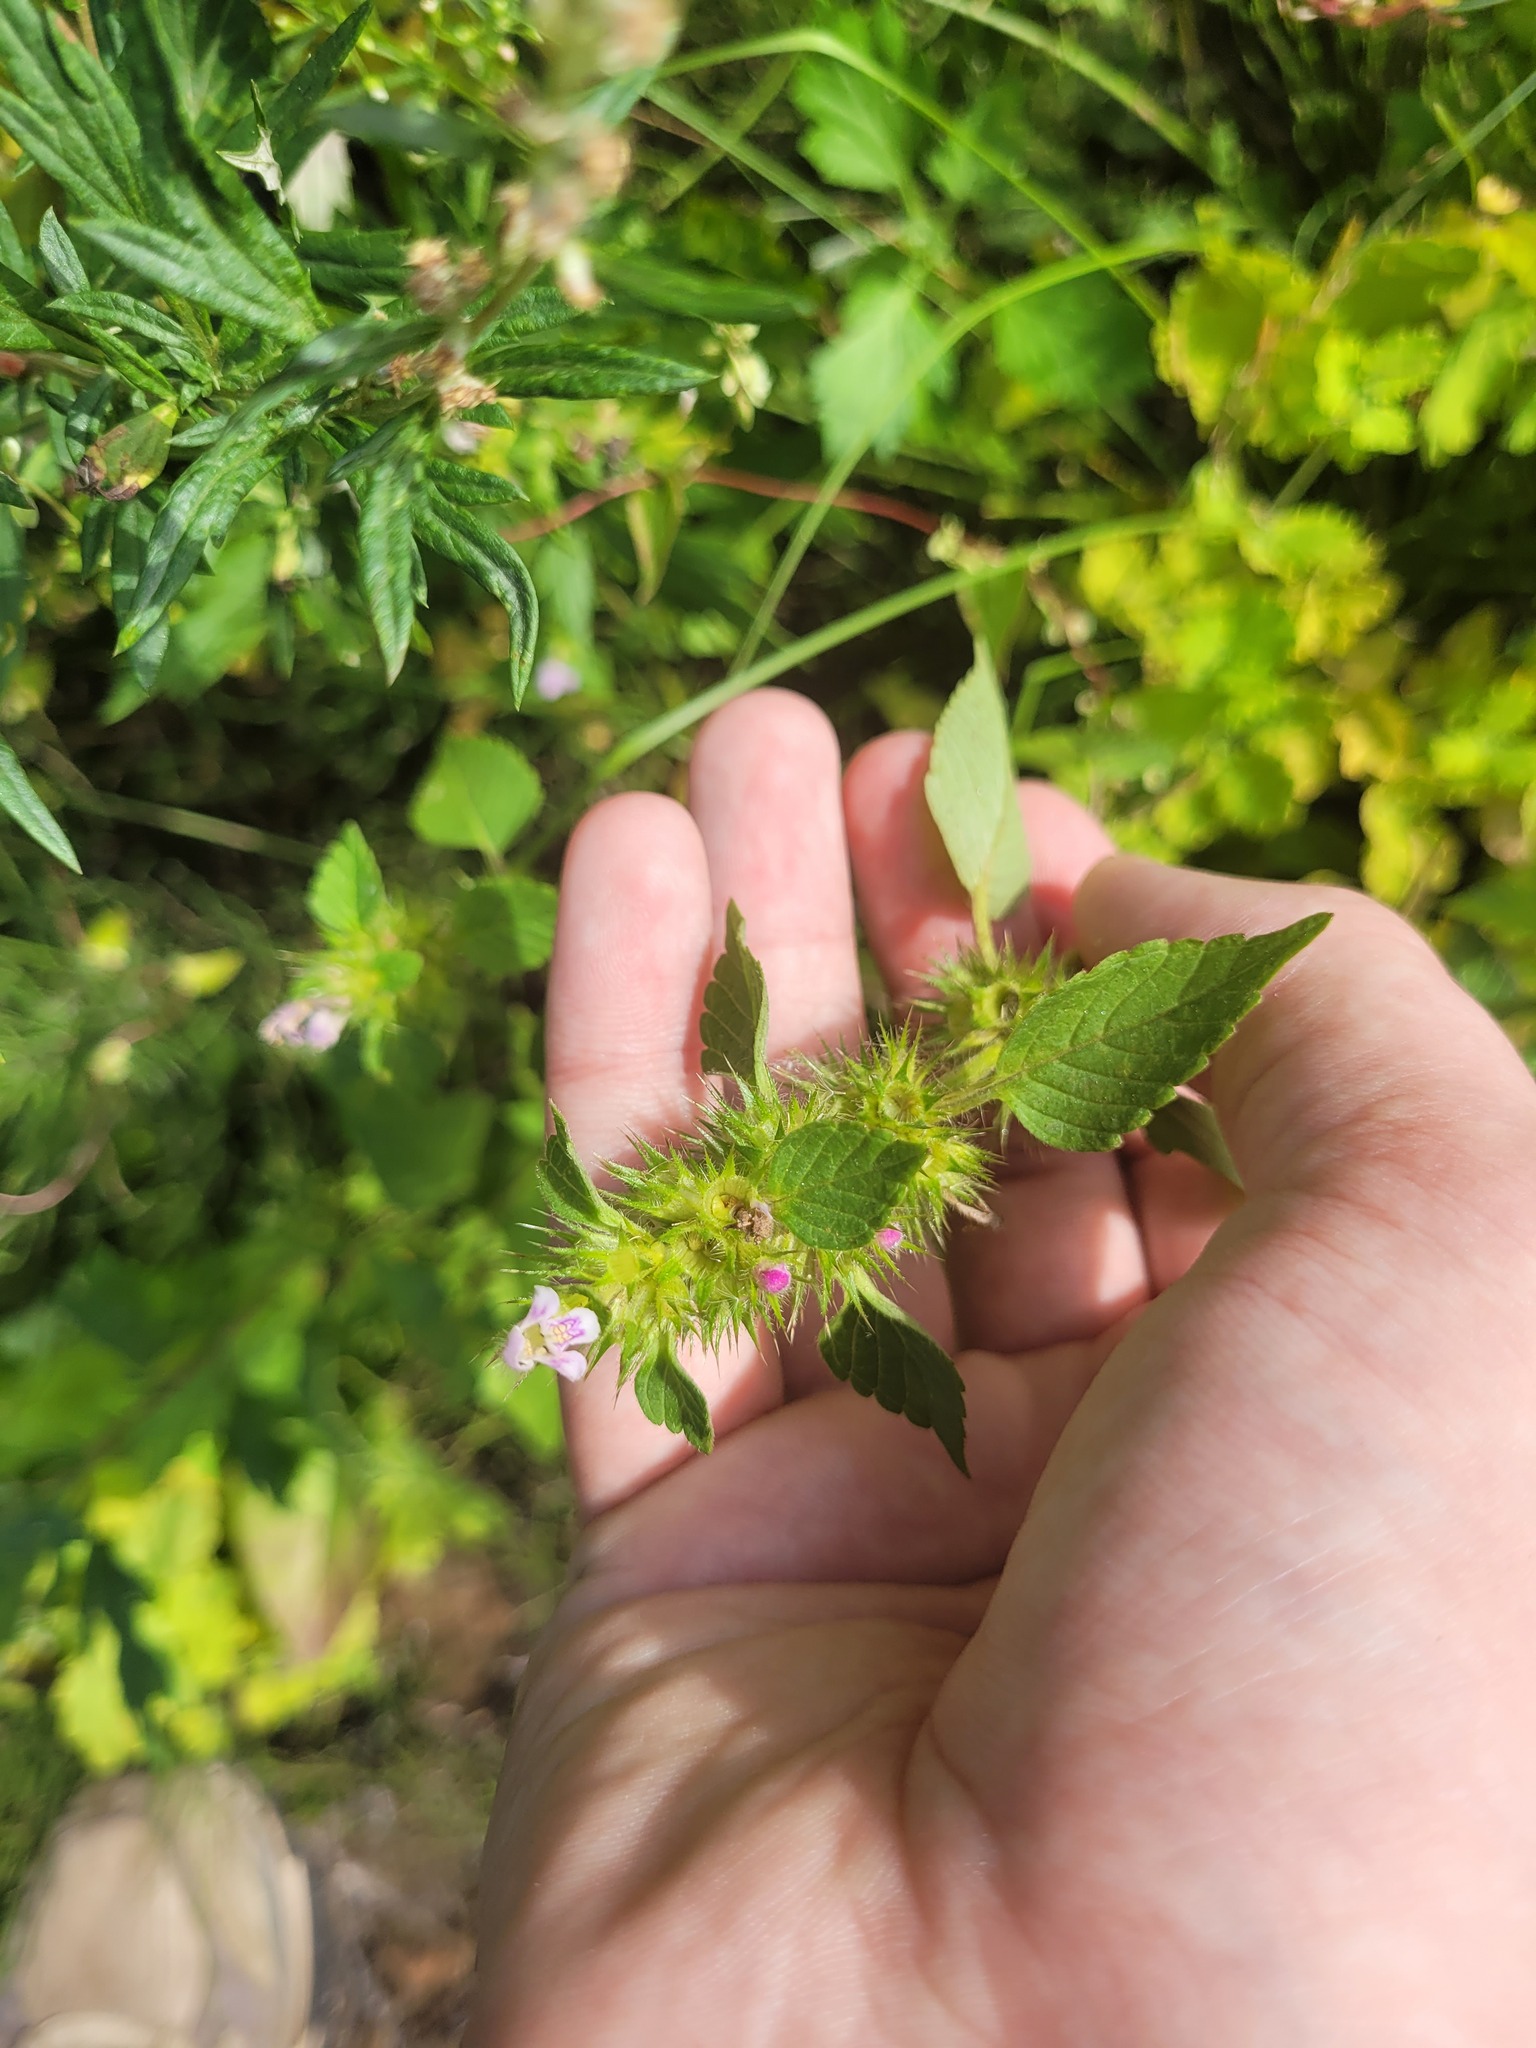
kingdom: Plantae
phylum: Tracheophyta
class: Magnoliopsida
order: Lamiales
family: Lamiaceae
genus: Galeopsis
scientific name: Galeopsis tetrahit
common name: Common hemp-nettle
